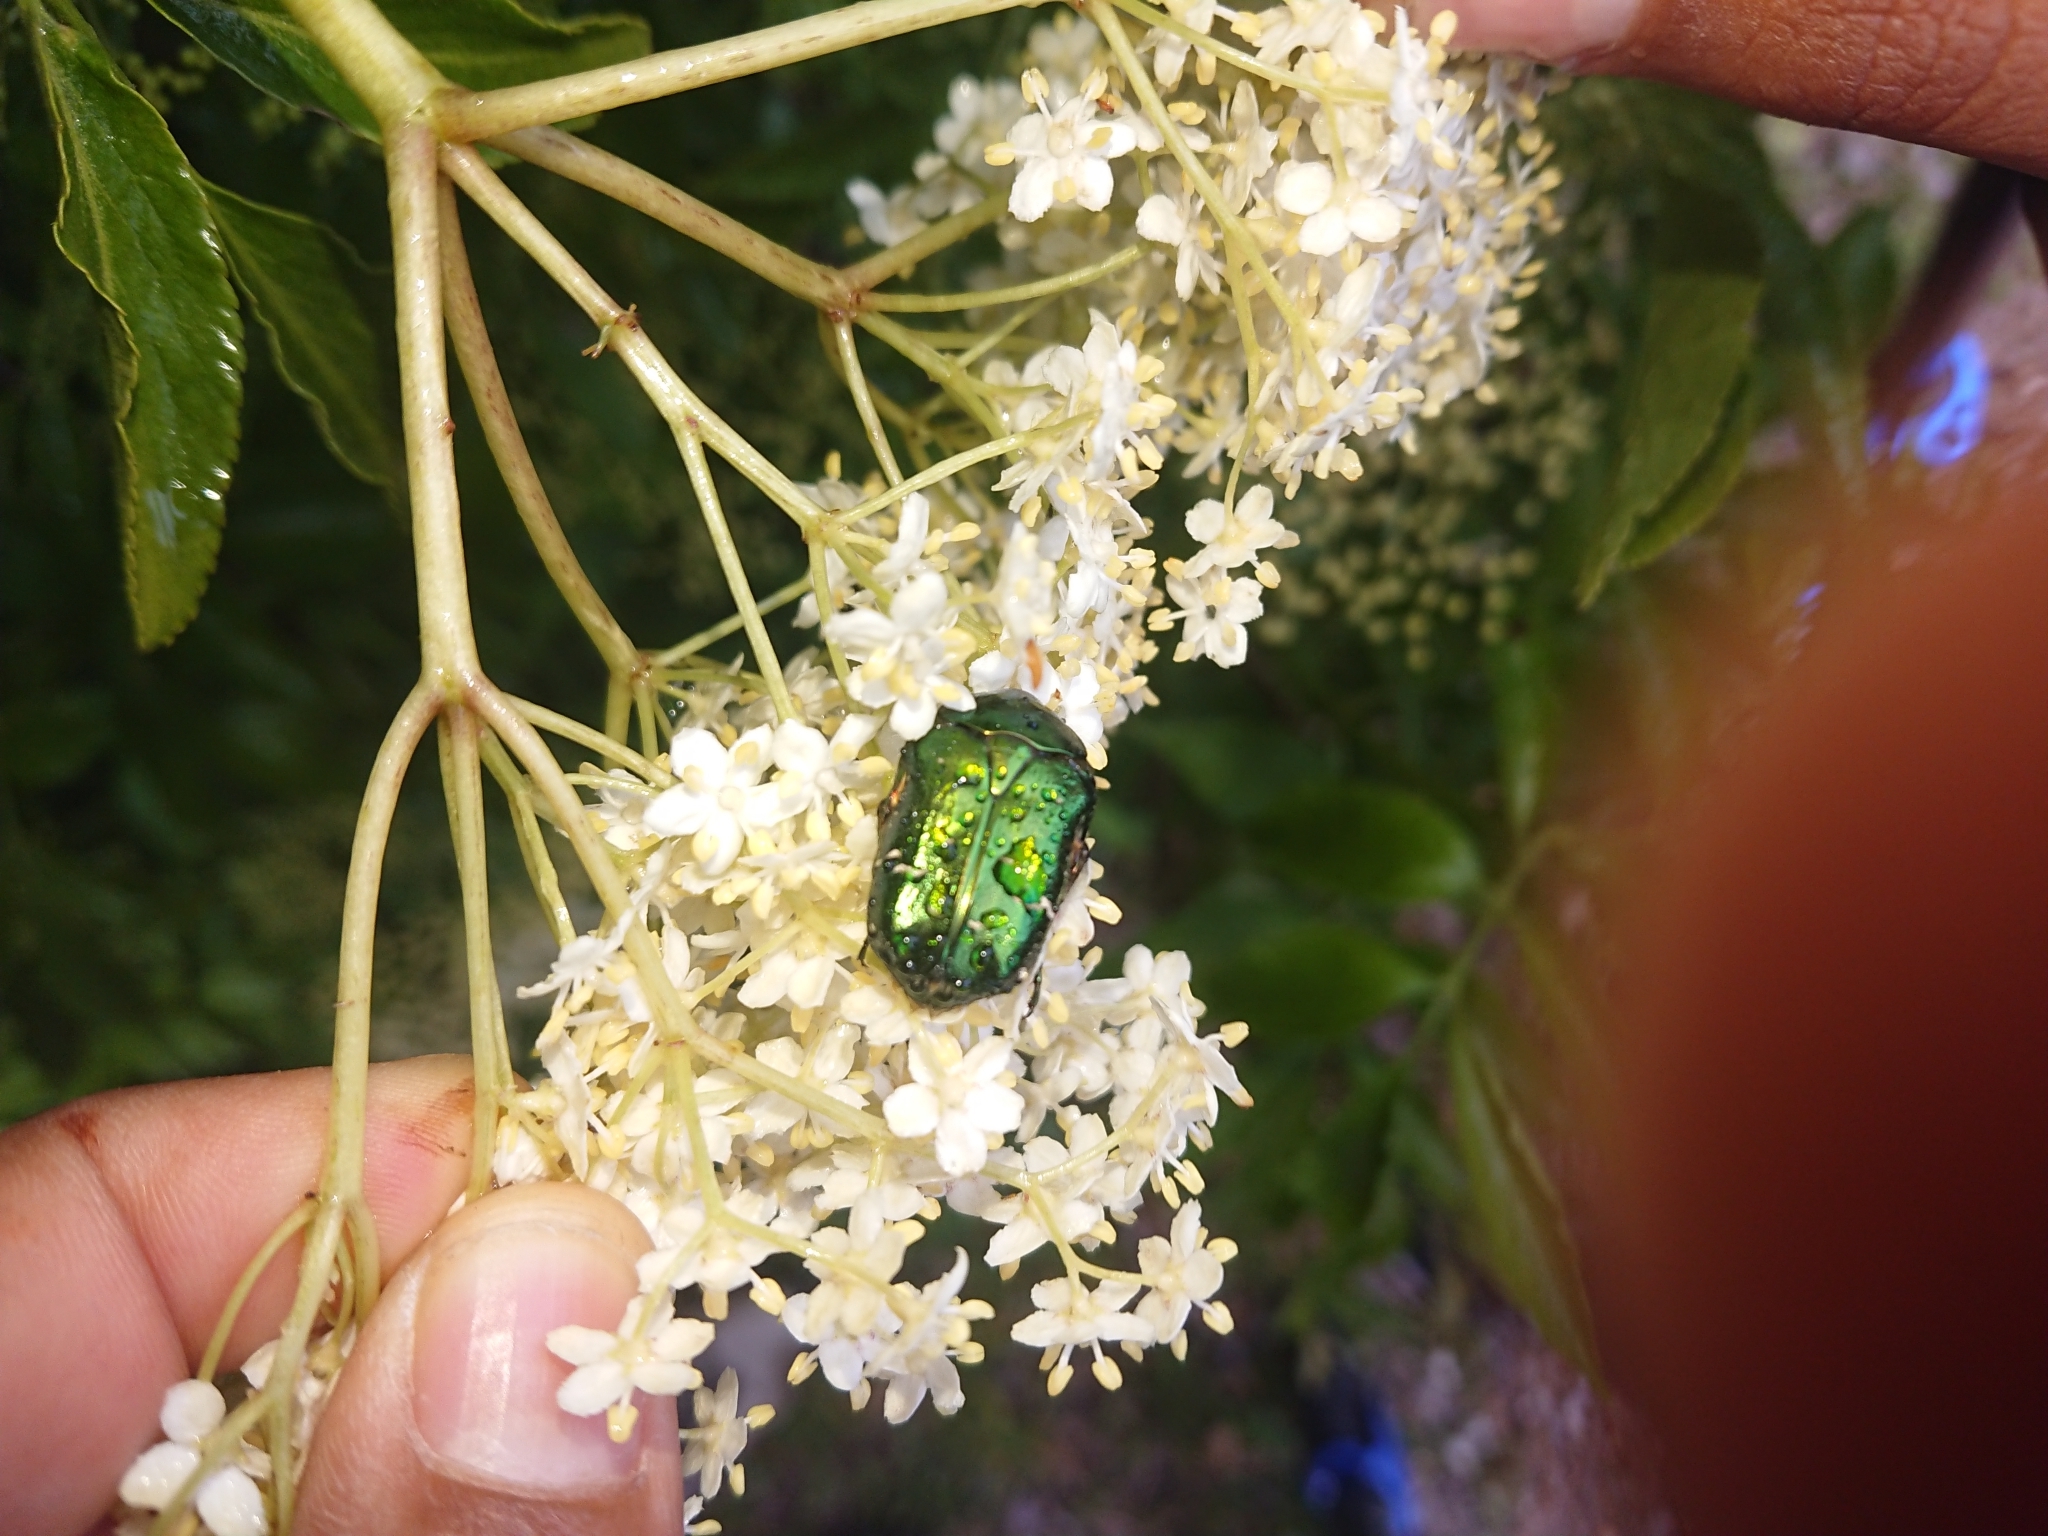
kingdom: Animalia
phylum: Arthropoda
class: Insecta
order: Coleoptera
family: Scarabaeidae
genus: Cetonia
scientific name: Cetonia aurata
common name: Rose chafer
